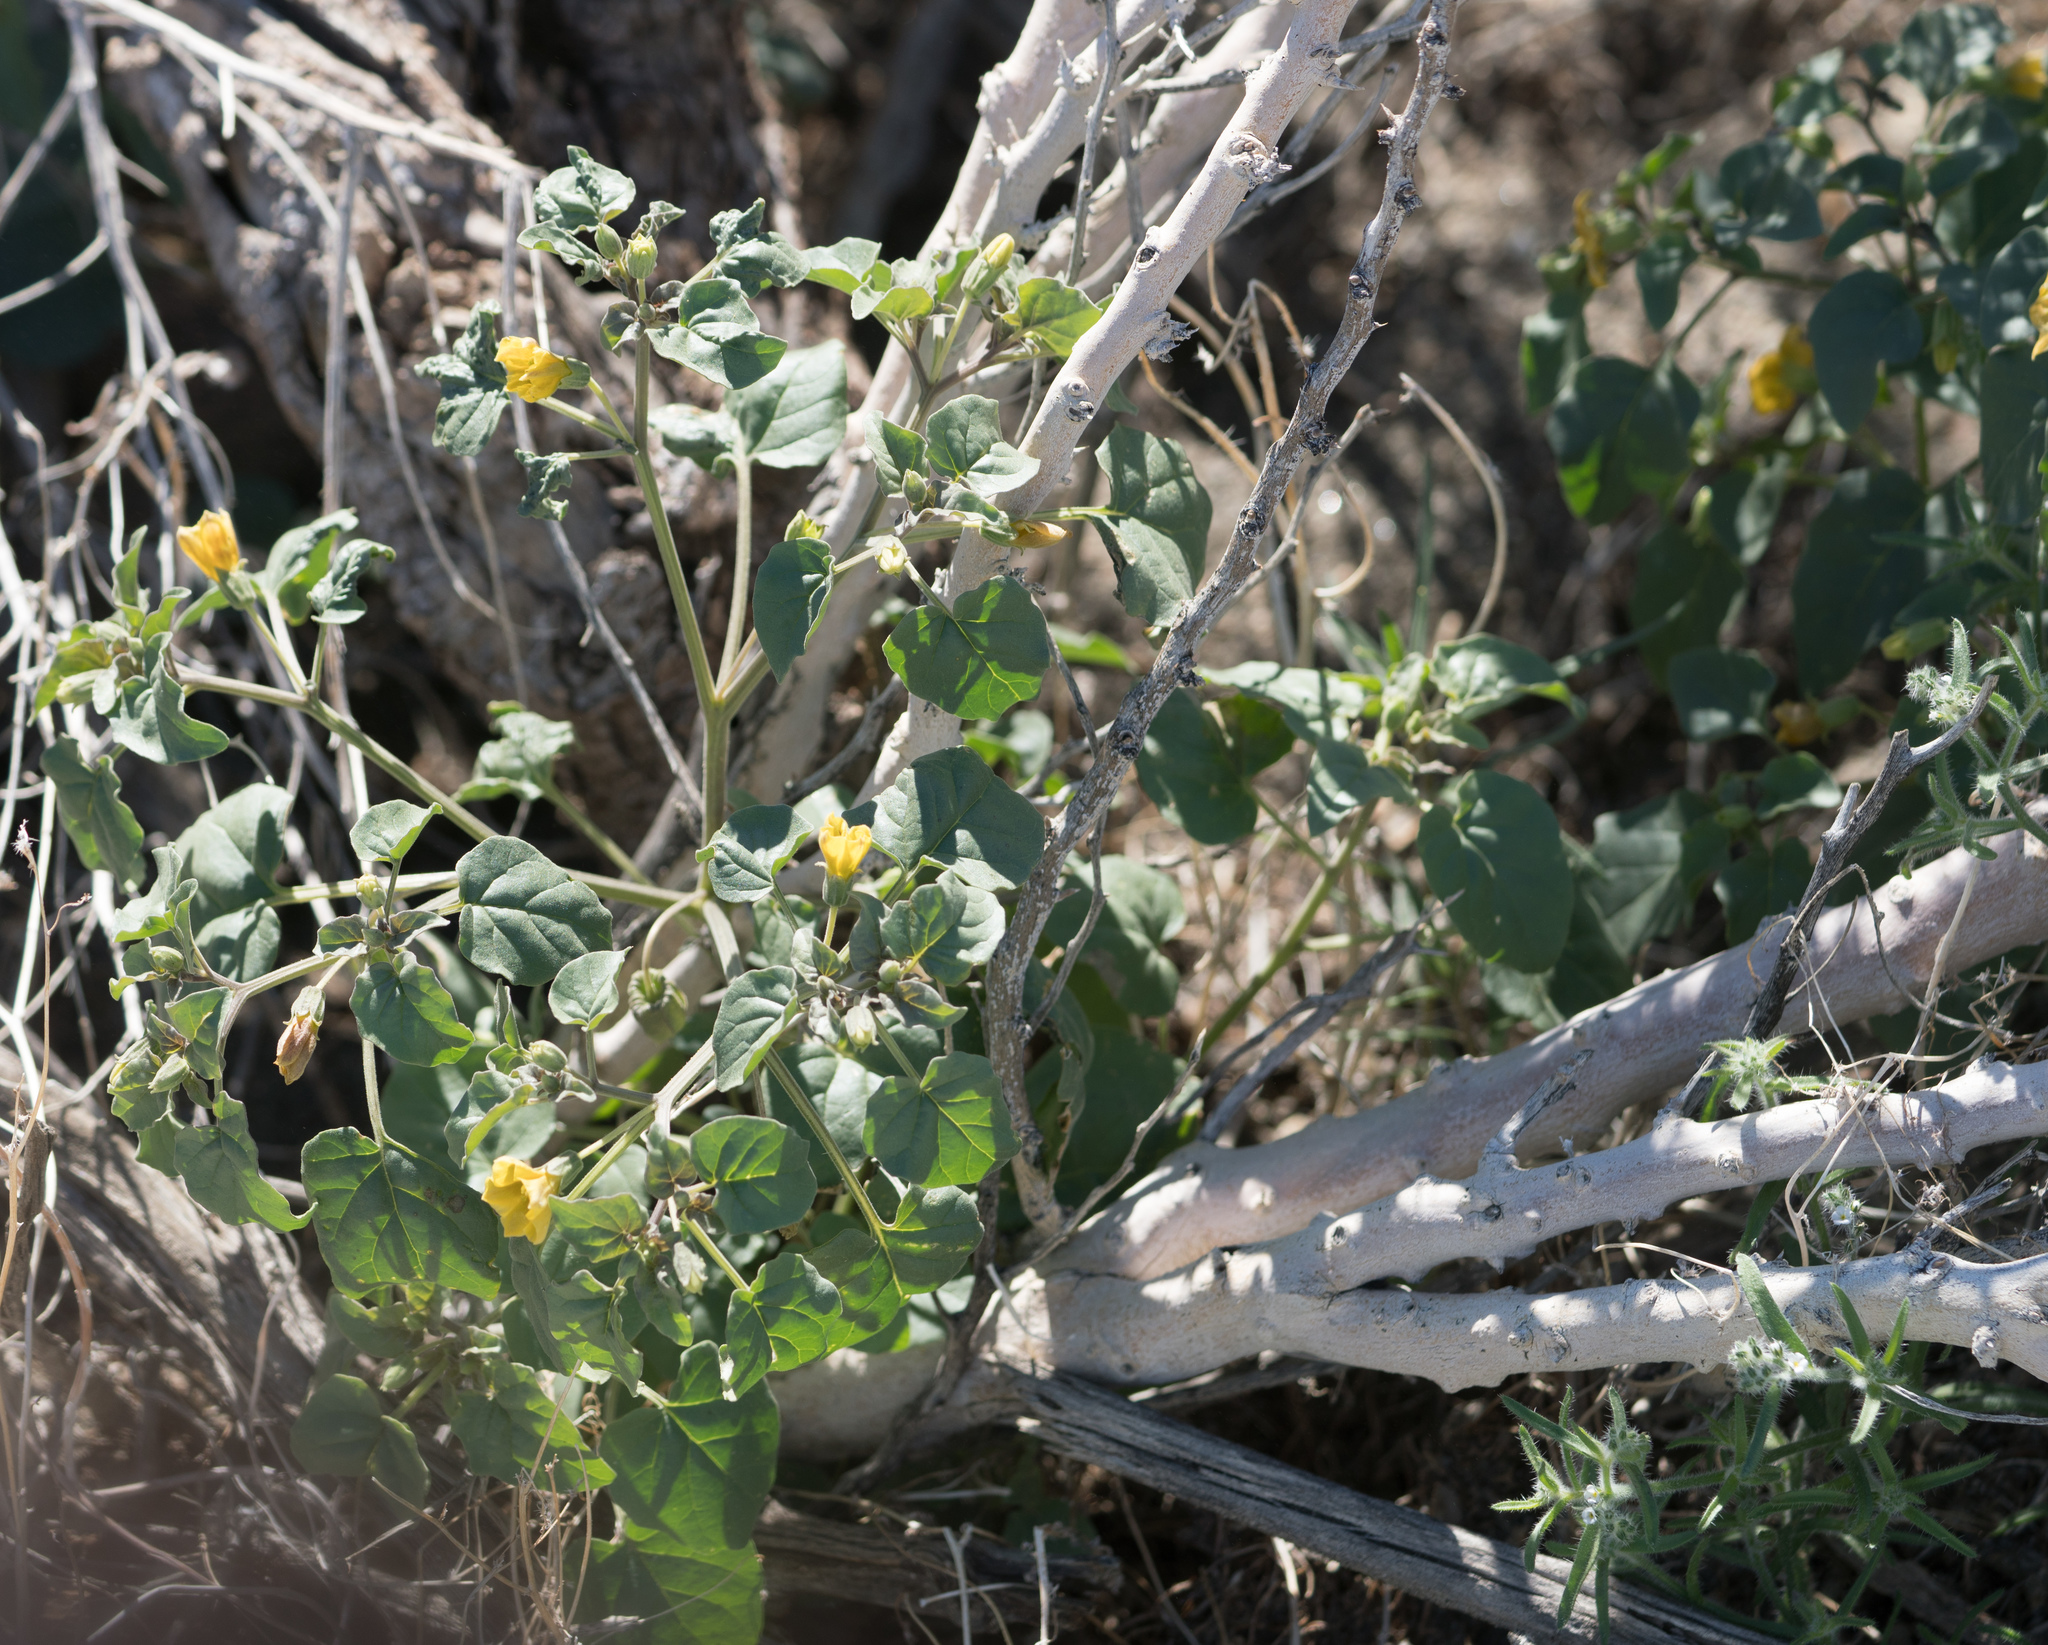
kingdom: Plantae
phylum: Tracheophyta
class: Magnoliopsida
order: Solanales
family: Solanaceae
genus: Physalis
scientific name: Physalis crassifolia
